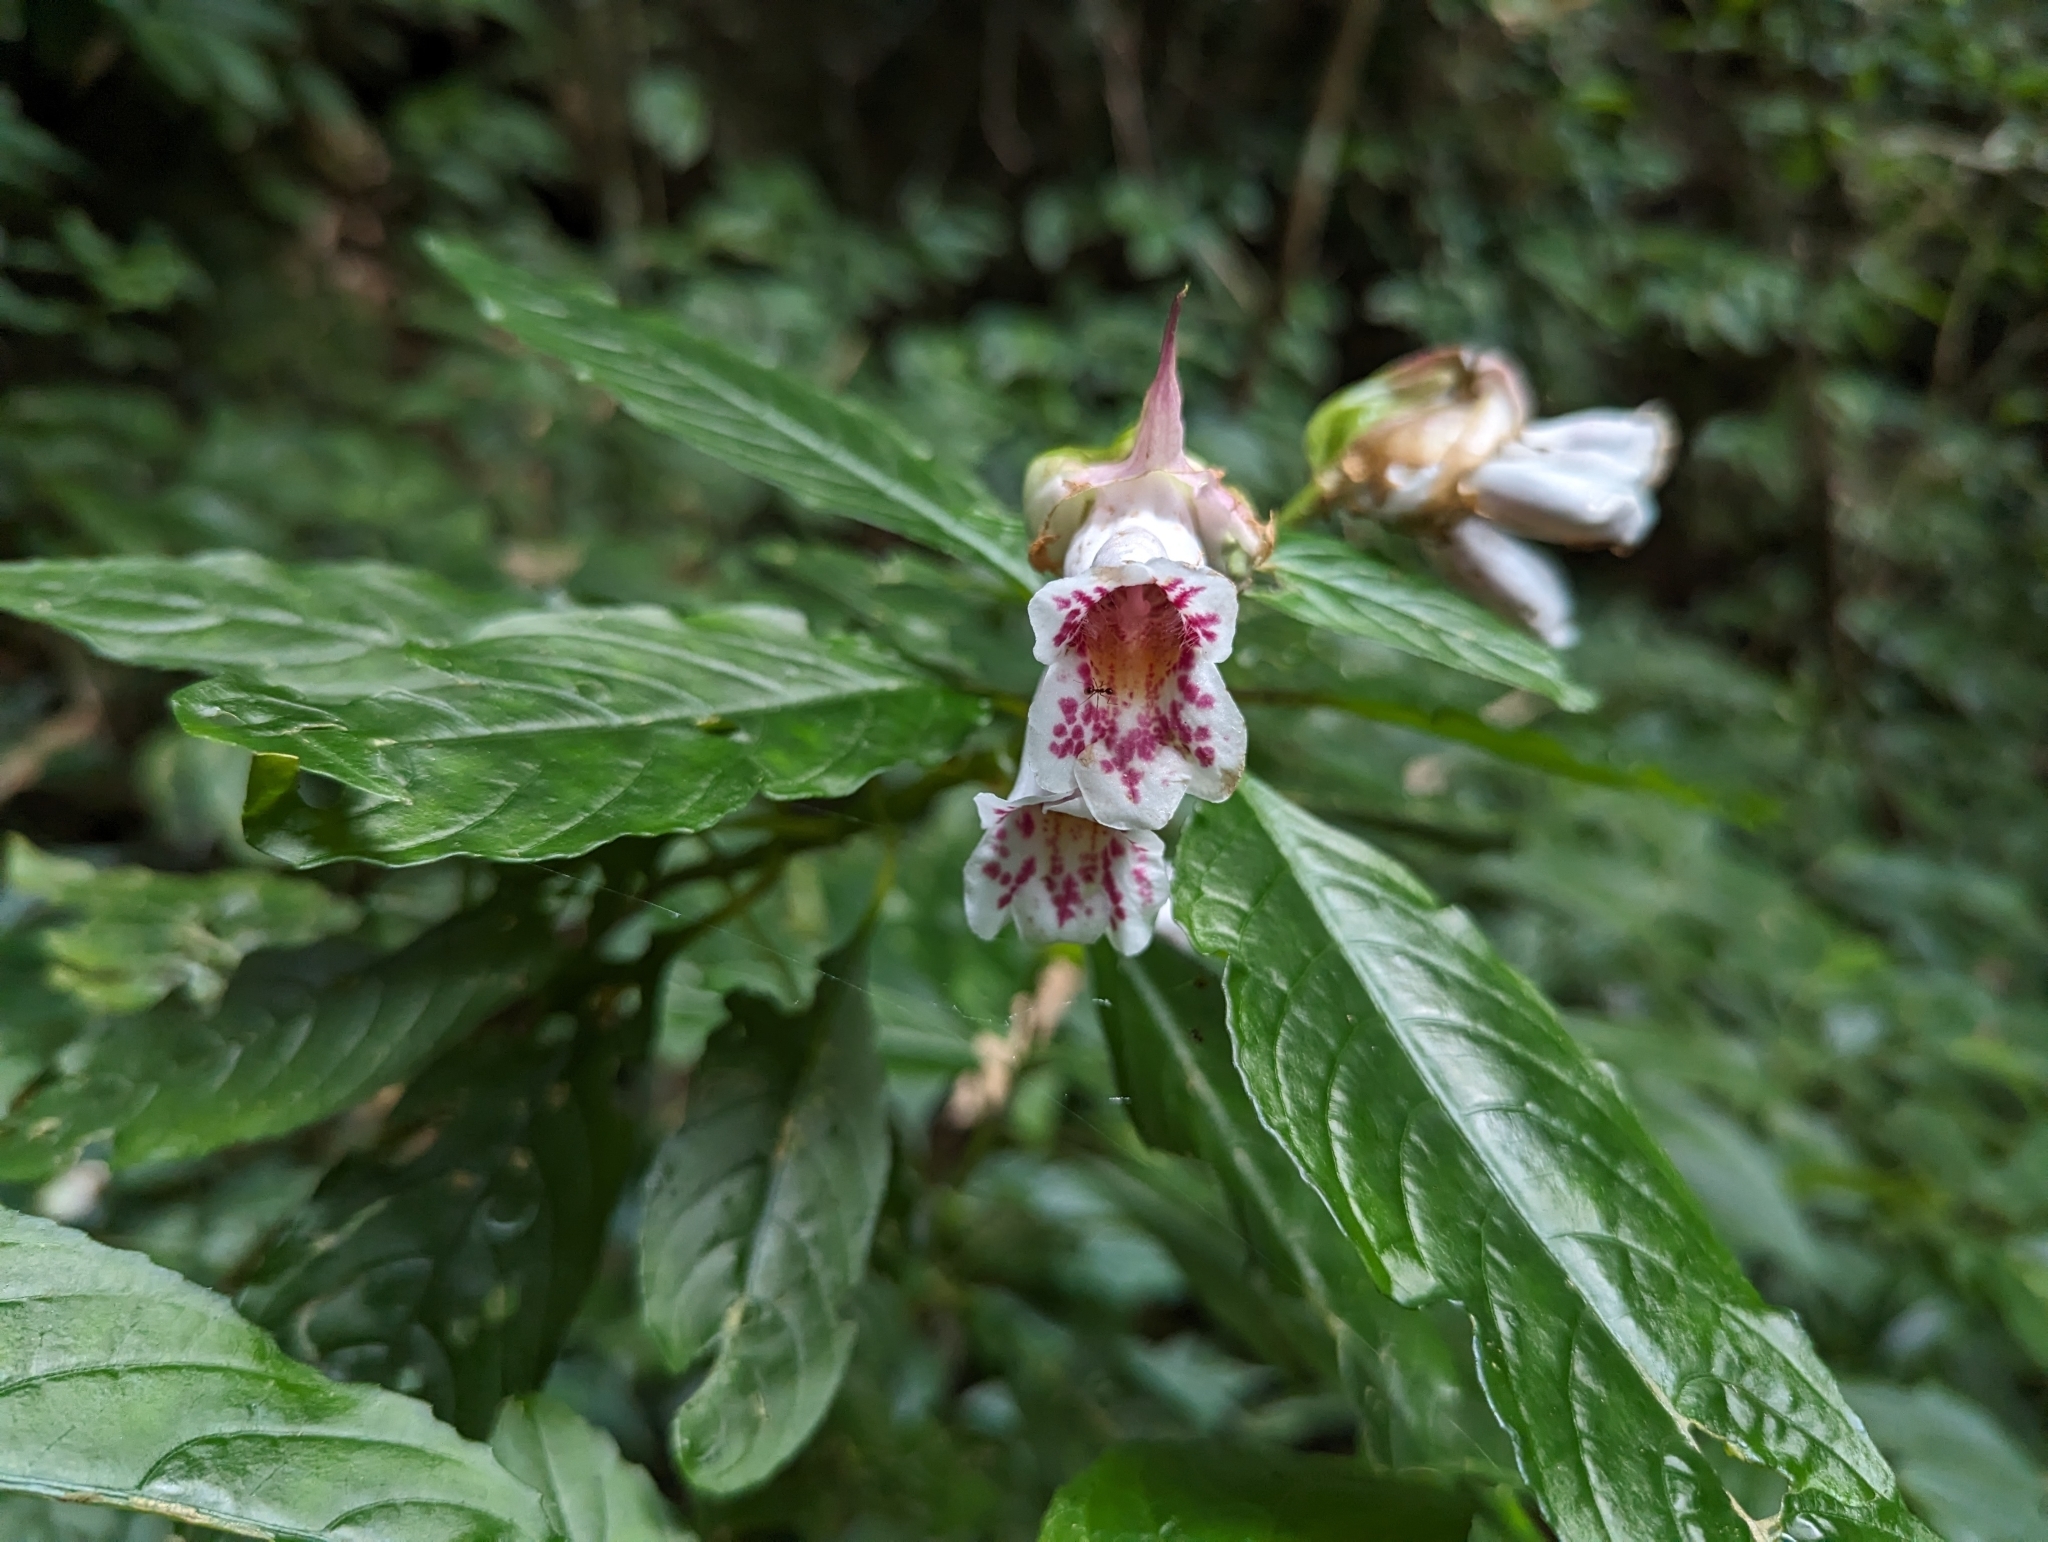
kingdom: Plantae
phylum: Tracheophyta
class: Magnoliopsida
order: Lamiales
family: Gesneriaceae
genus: Hemiboea
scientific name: Hemiboea bicornuta
